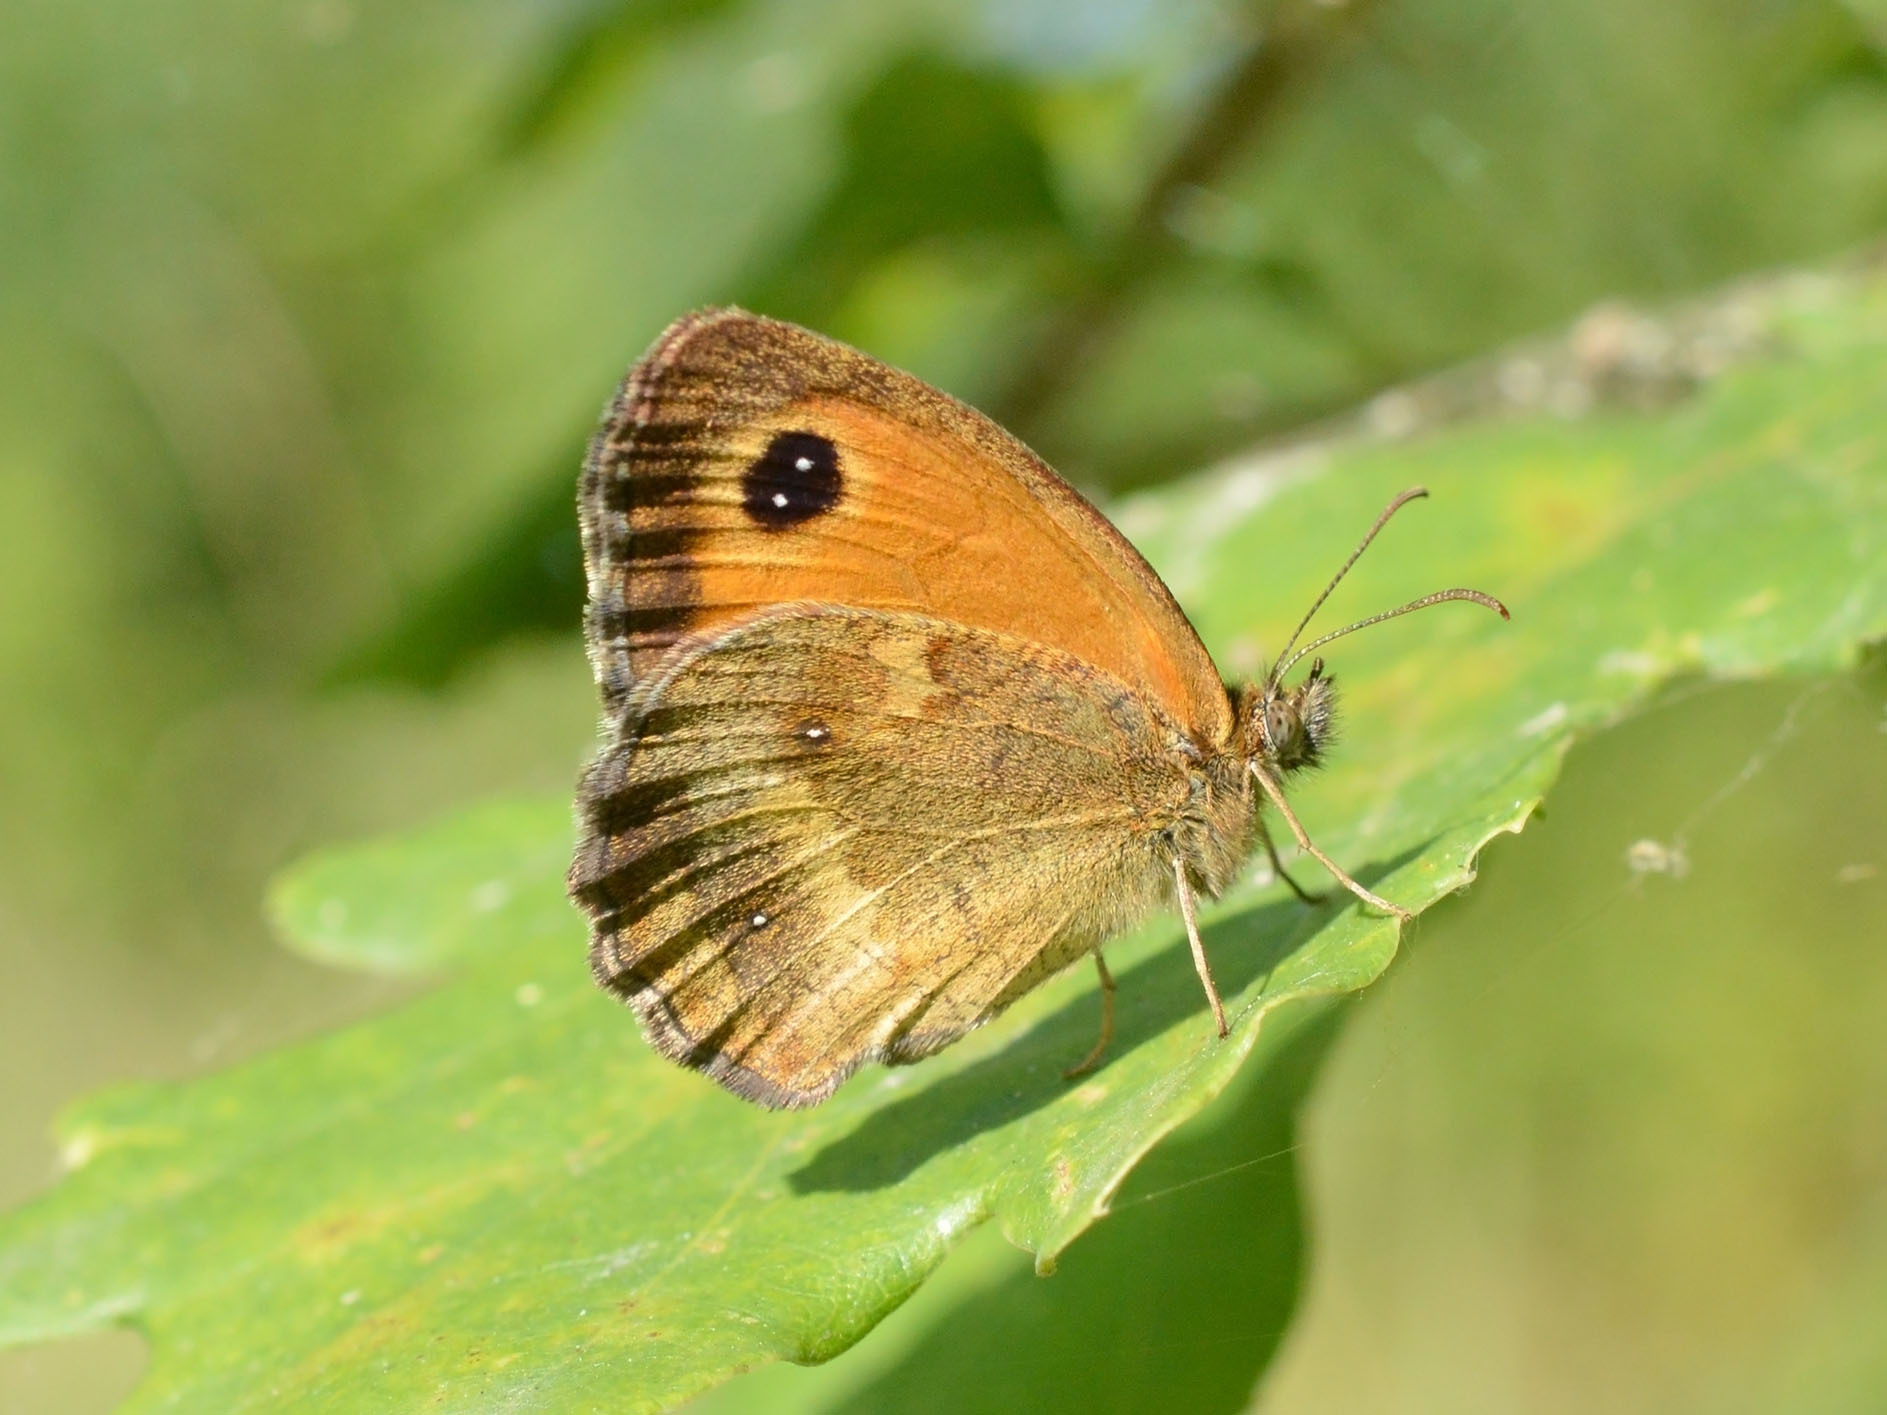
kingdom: Animalia
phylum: Arthropoda
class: Insecta
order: Lepidoptera
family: Nymphalidae
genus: Pyronia
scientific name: Pyronia tithonus
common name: Gatekeeper
